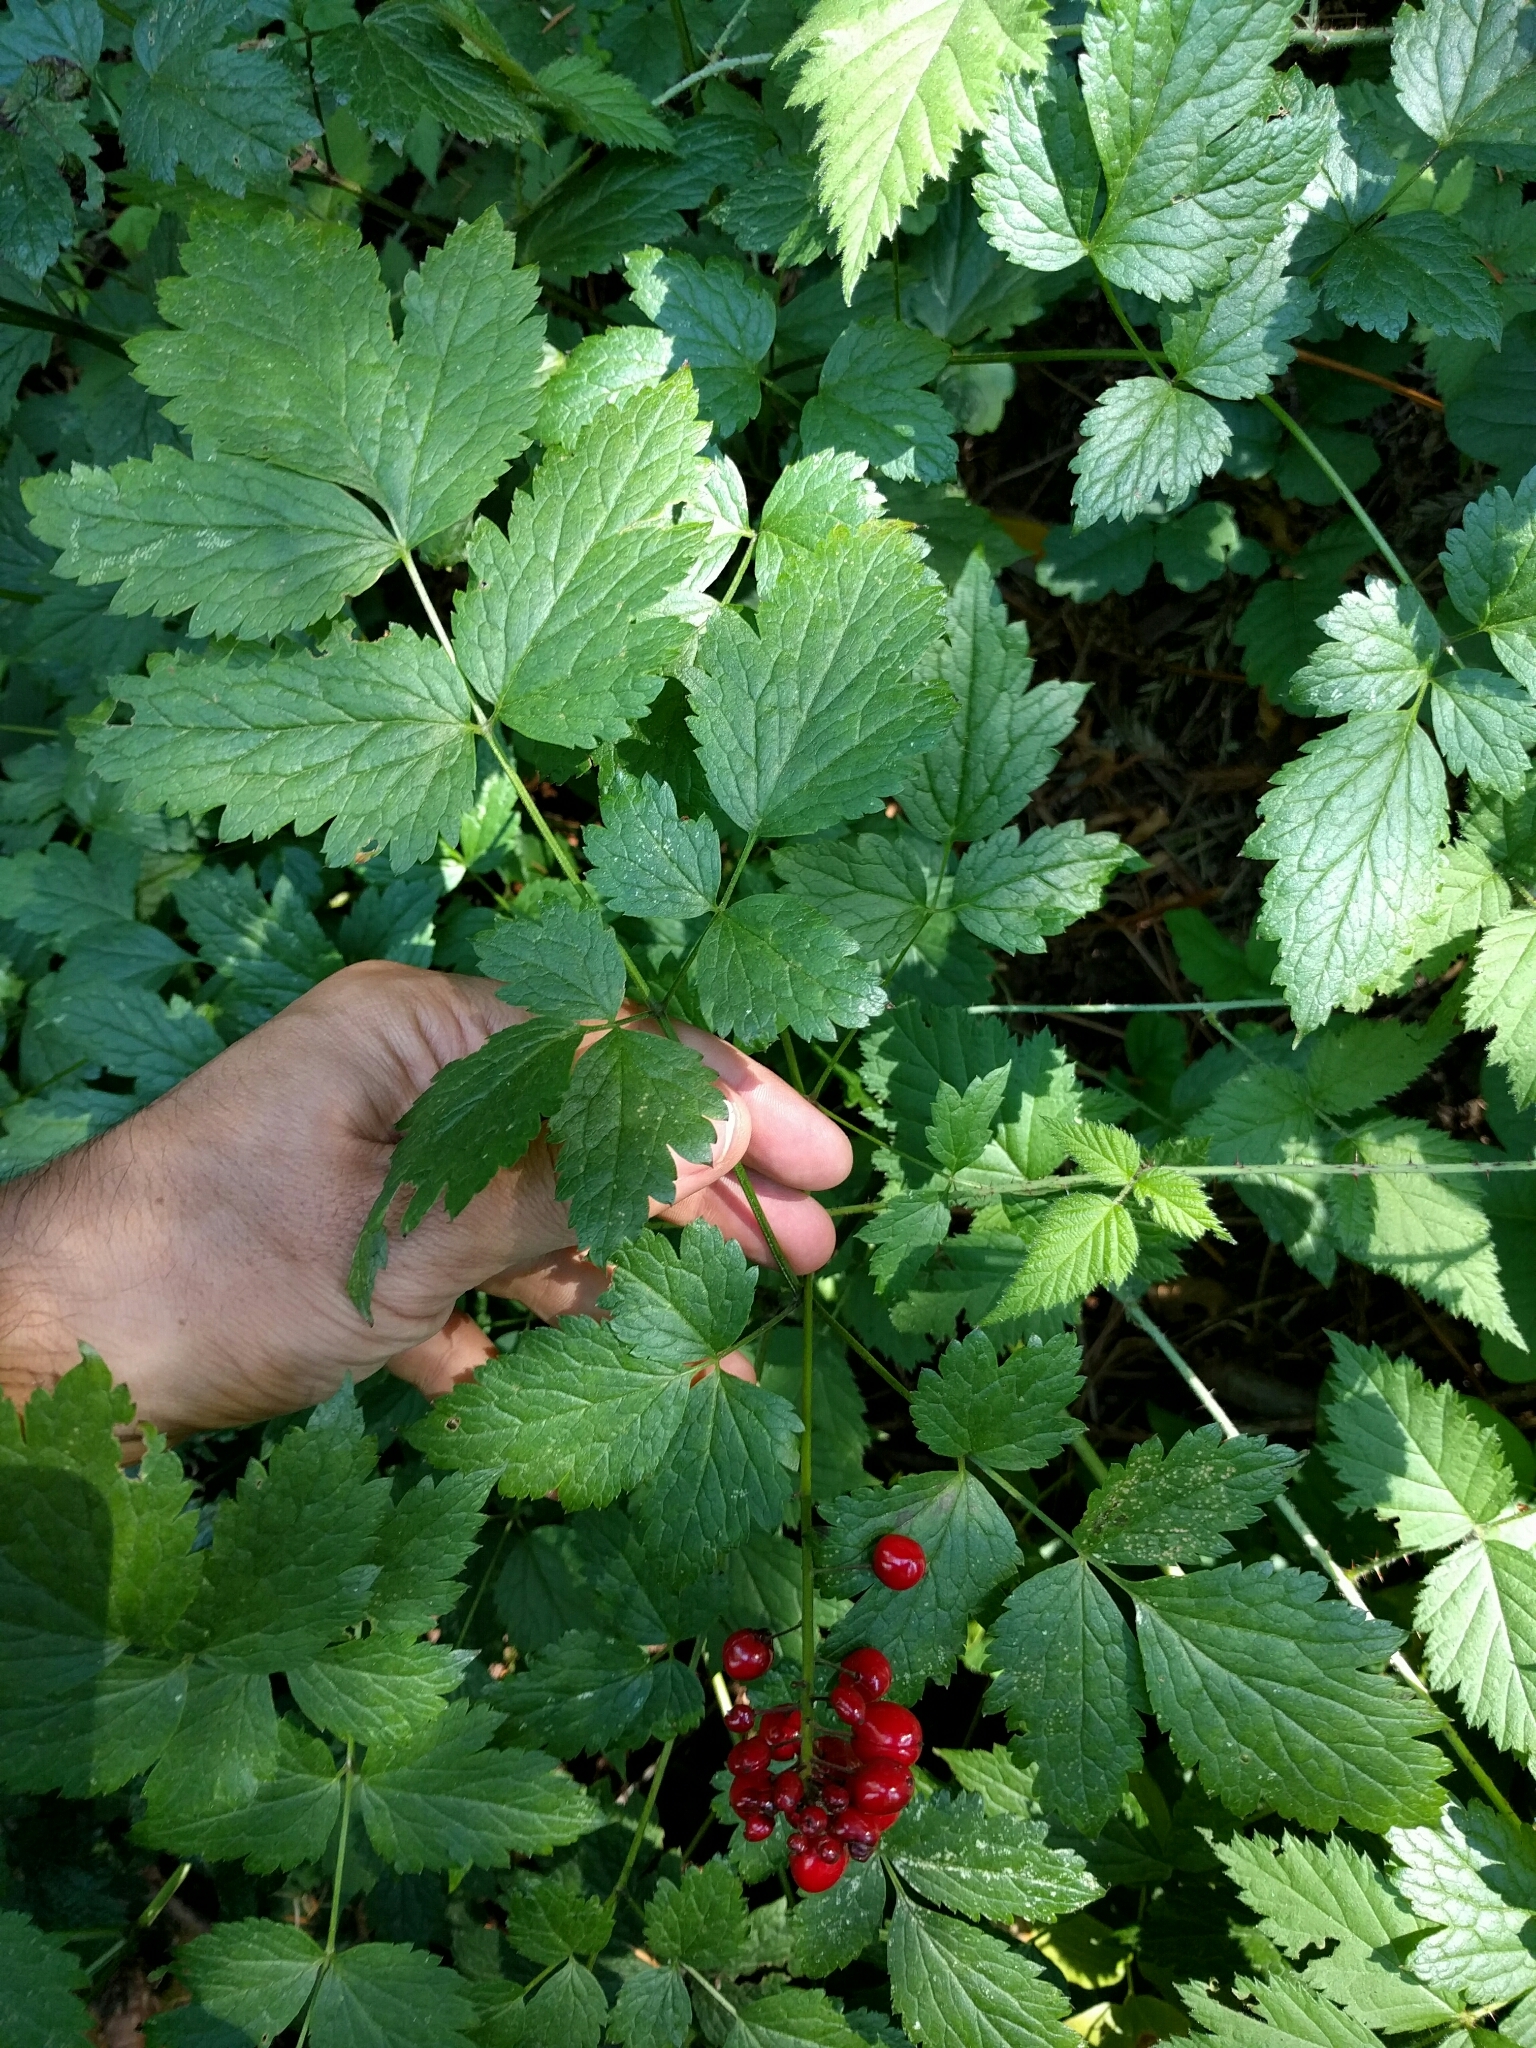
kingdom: Plantae
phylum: Tracheophyta
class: Magnoliopsida
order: Ranunculales
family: Ranunculaceae
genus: Actaea
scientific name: Actaea rubra
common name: Red baneberry
